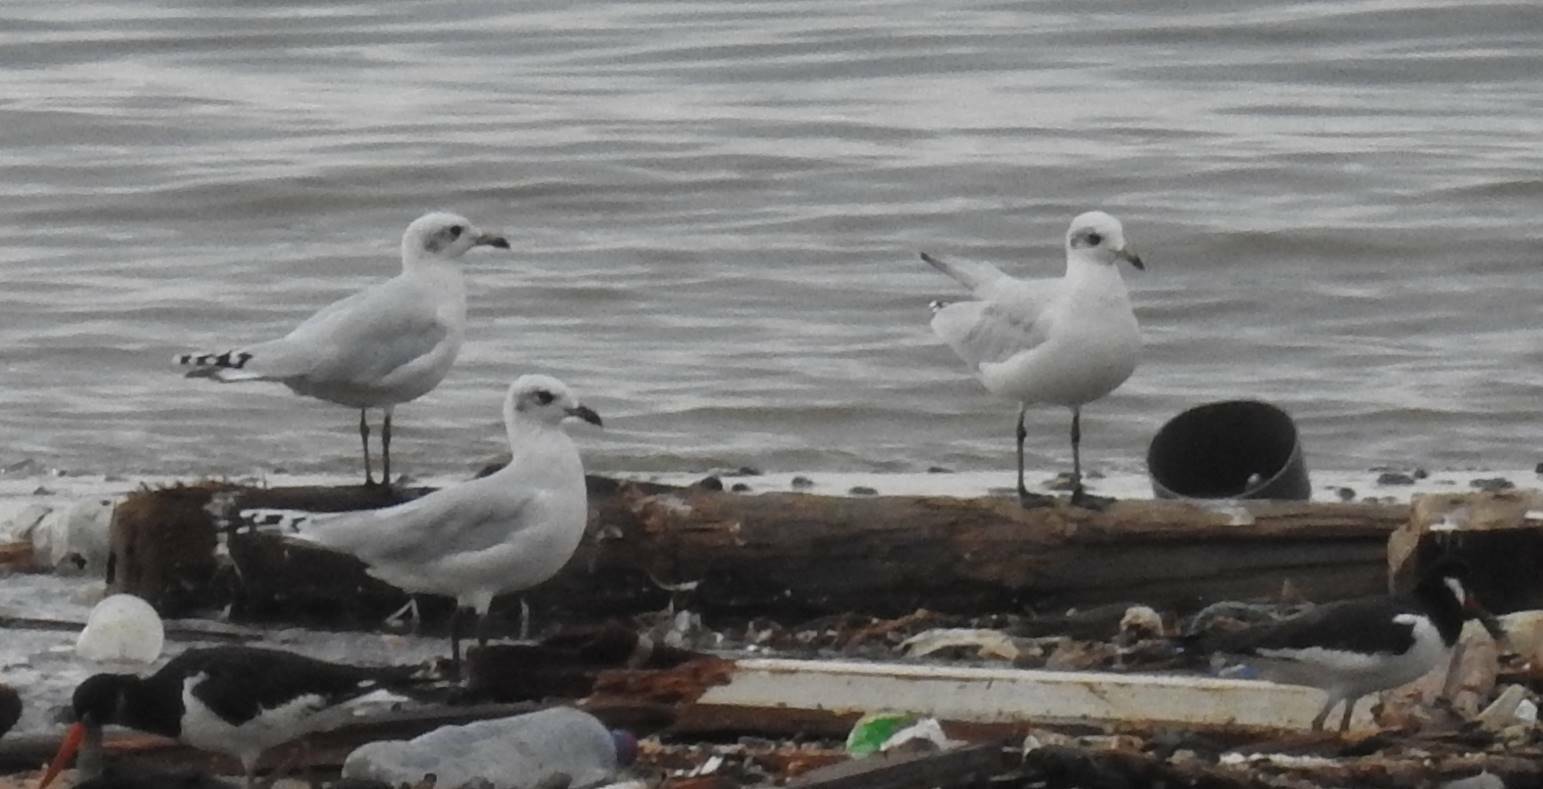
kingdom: Animalia
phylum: Chordata
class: Aves
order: Charadriiformes
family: Laridae
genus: Ichthyaetus
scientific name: Ichthyaetus melanocephalus
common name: Mediterranean gull
